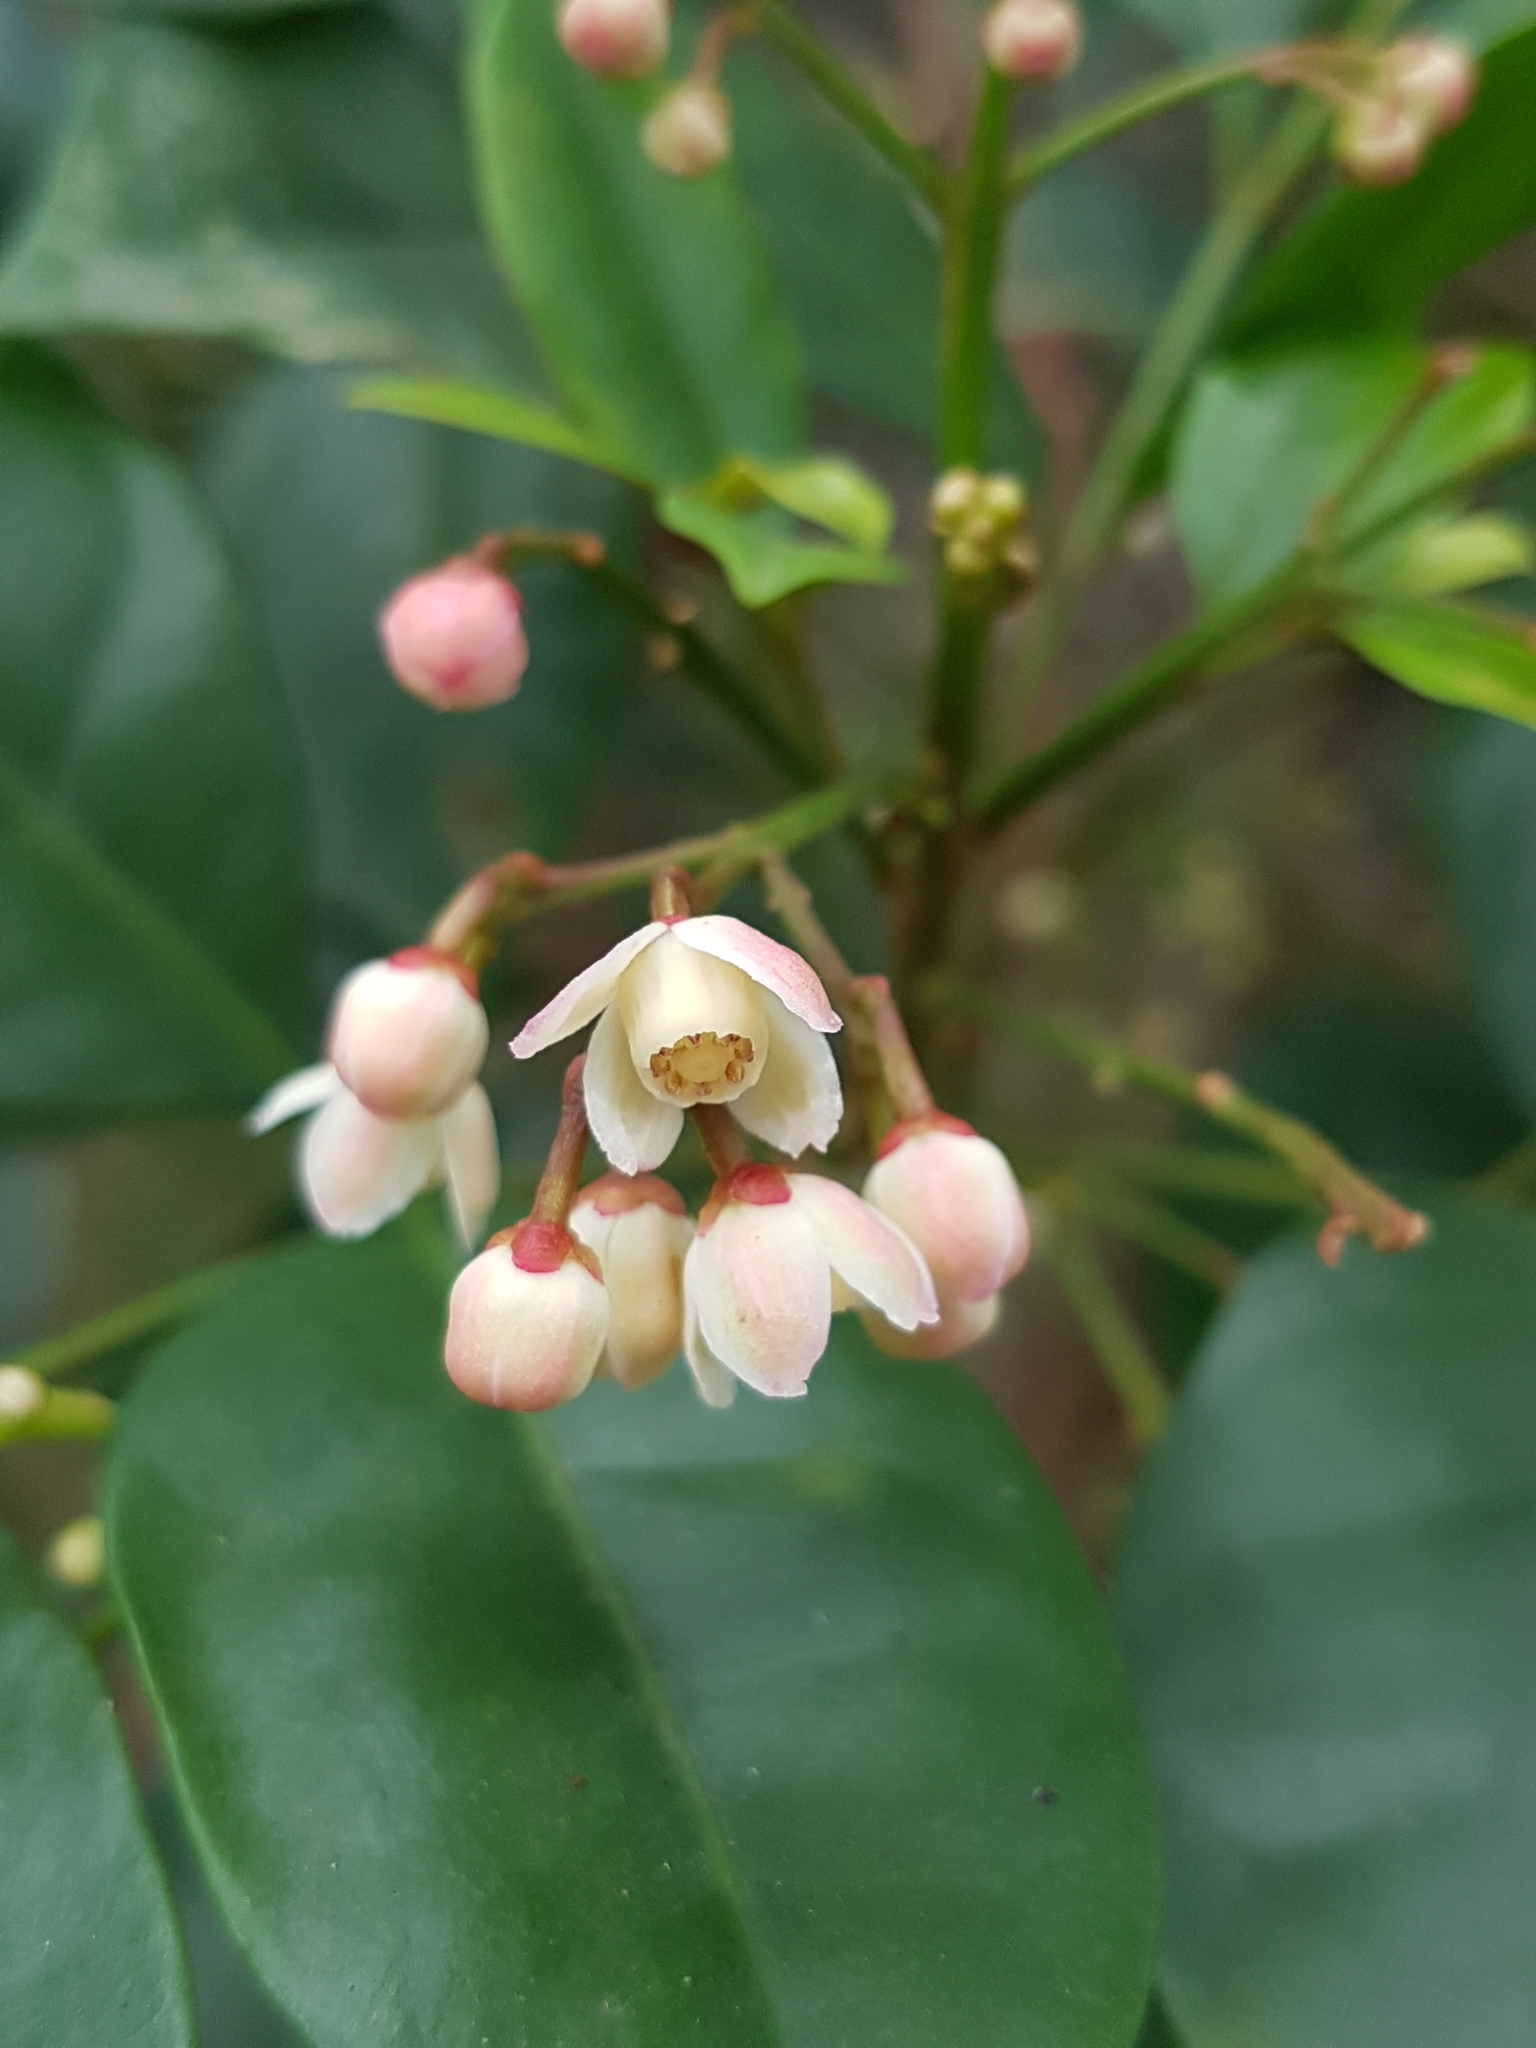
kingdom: Plantae
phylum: Tracheophyta
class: Magnoliopsida
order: Sapindales
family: Meliaceae
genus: Synoum
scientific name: Synoum glandulosum
